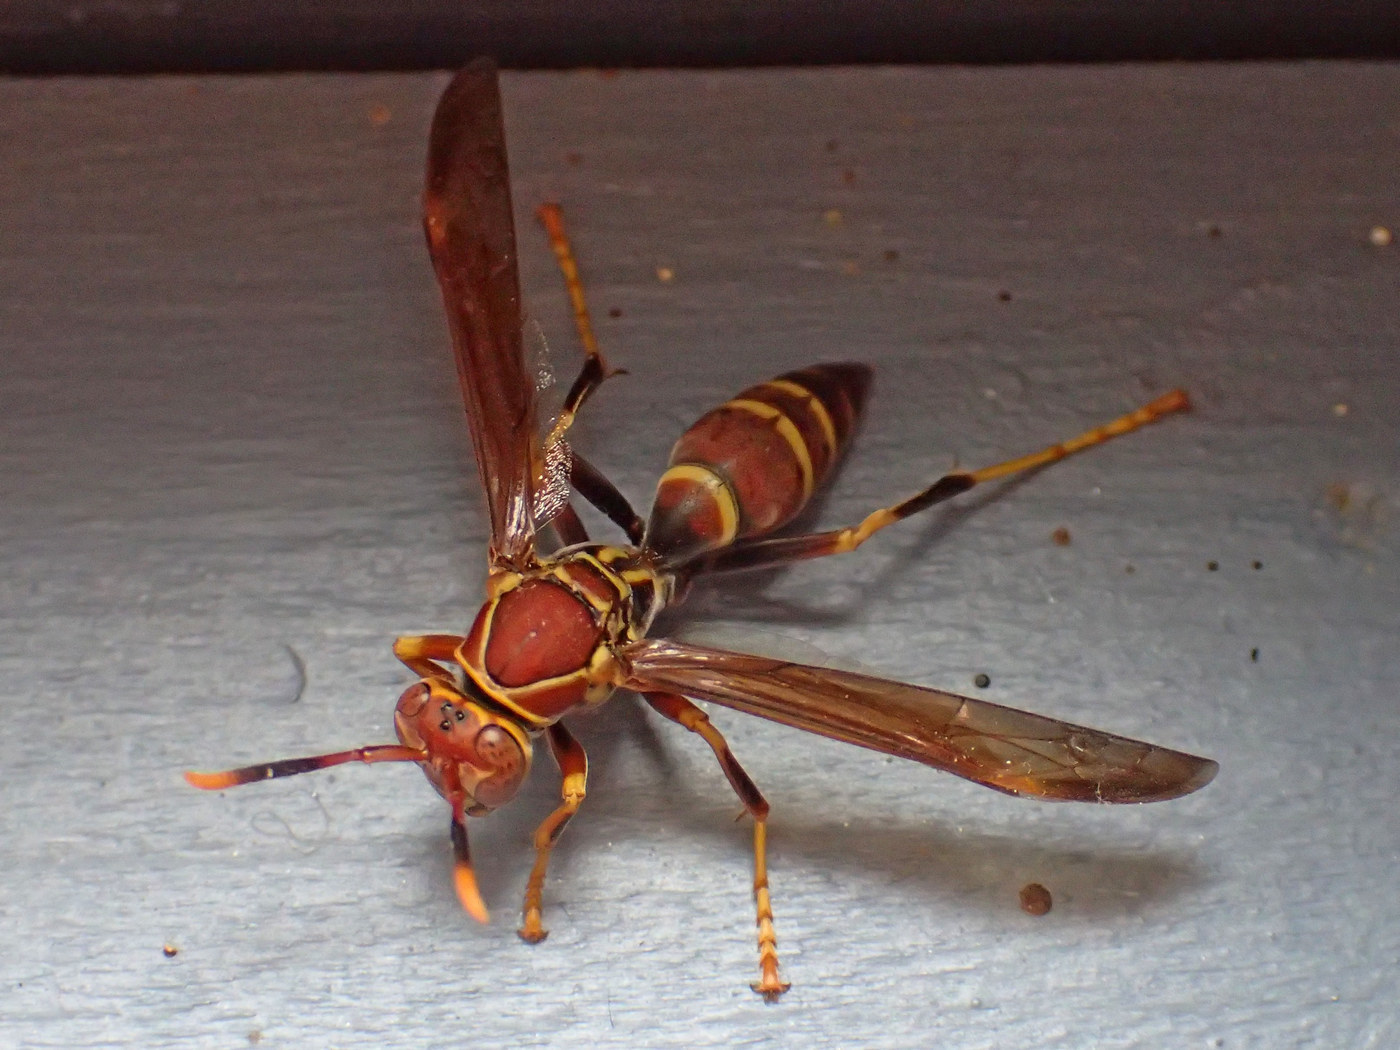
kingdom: Animalia
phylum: Arthropoda
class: Insecta
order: Hymenoptera
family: Eumenidae
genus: Polistes
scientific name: Polistes exclamans
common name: Paper wasp
